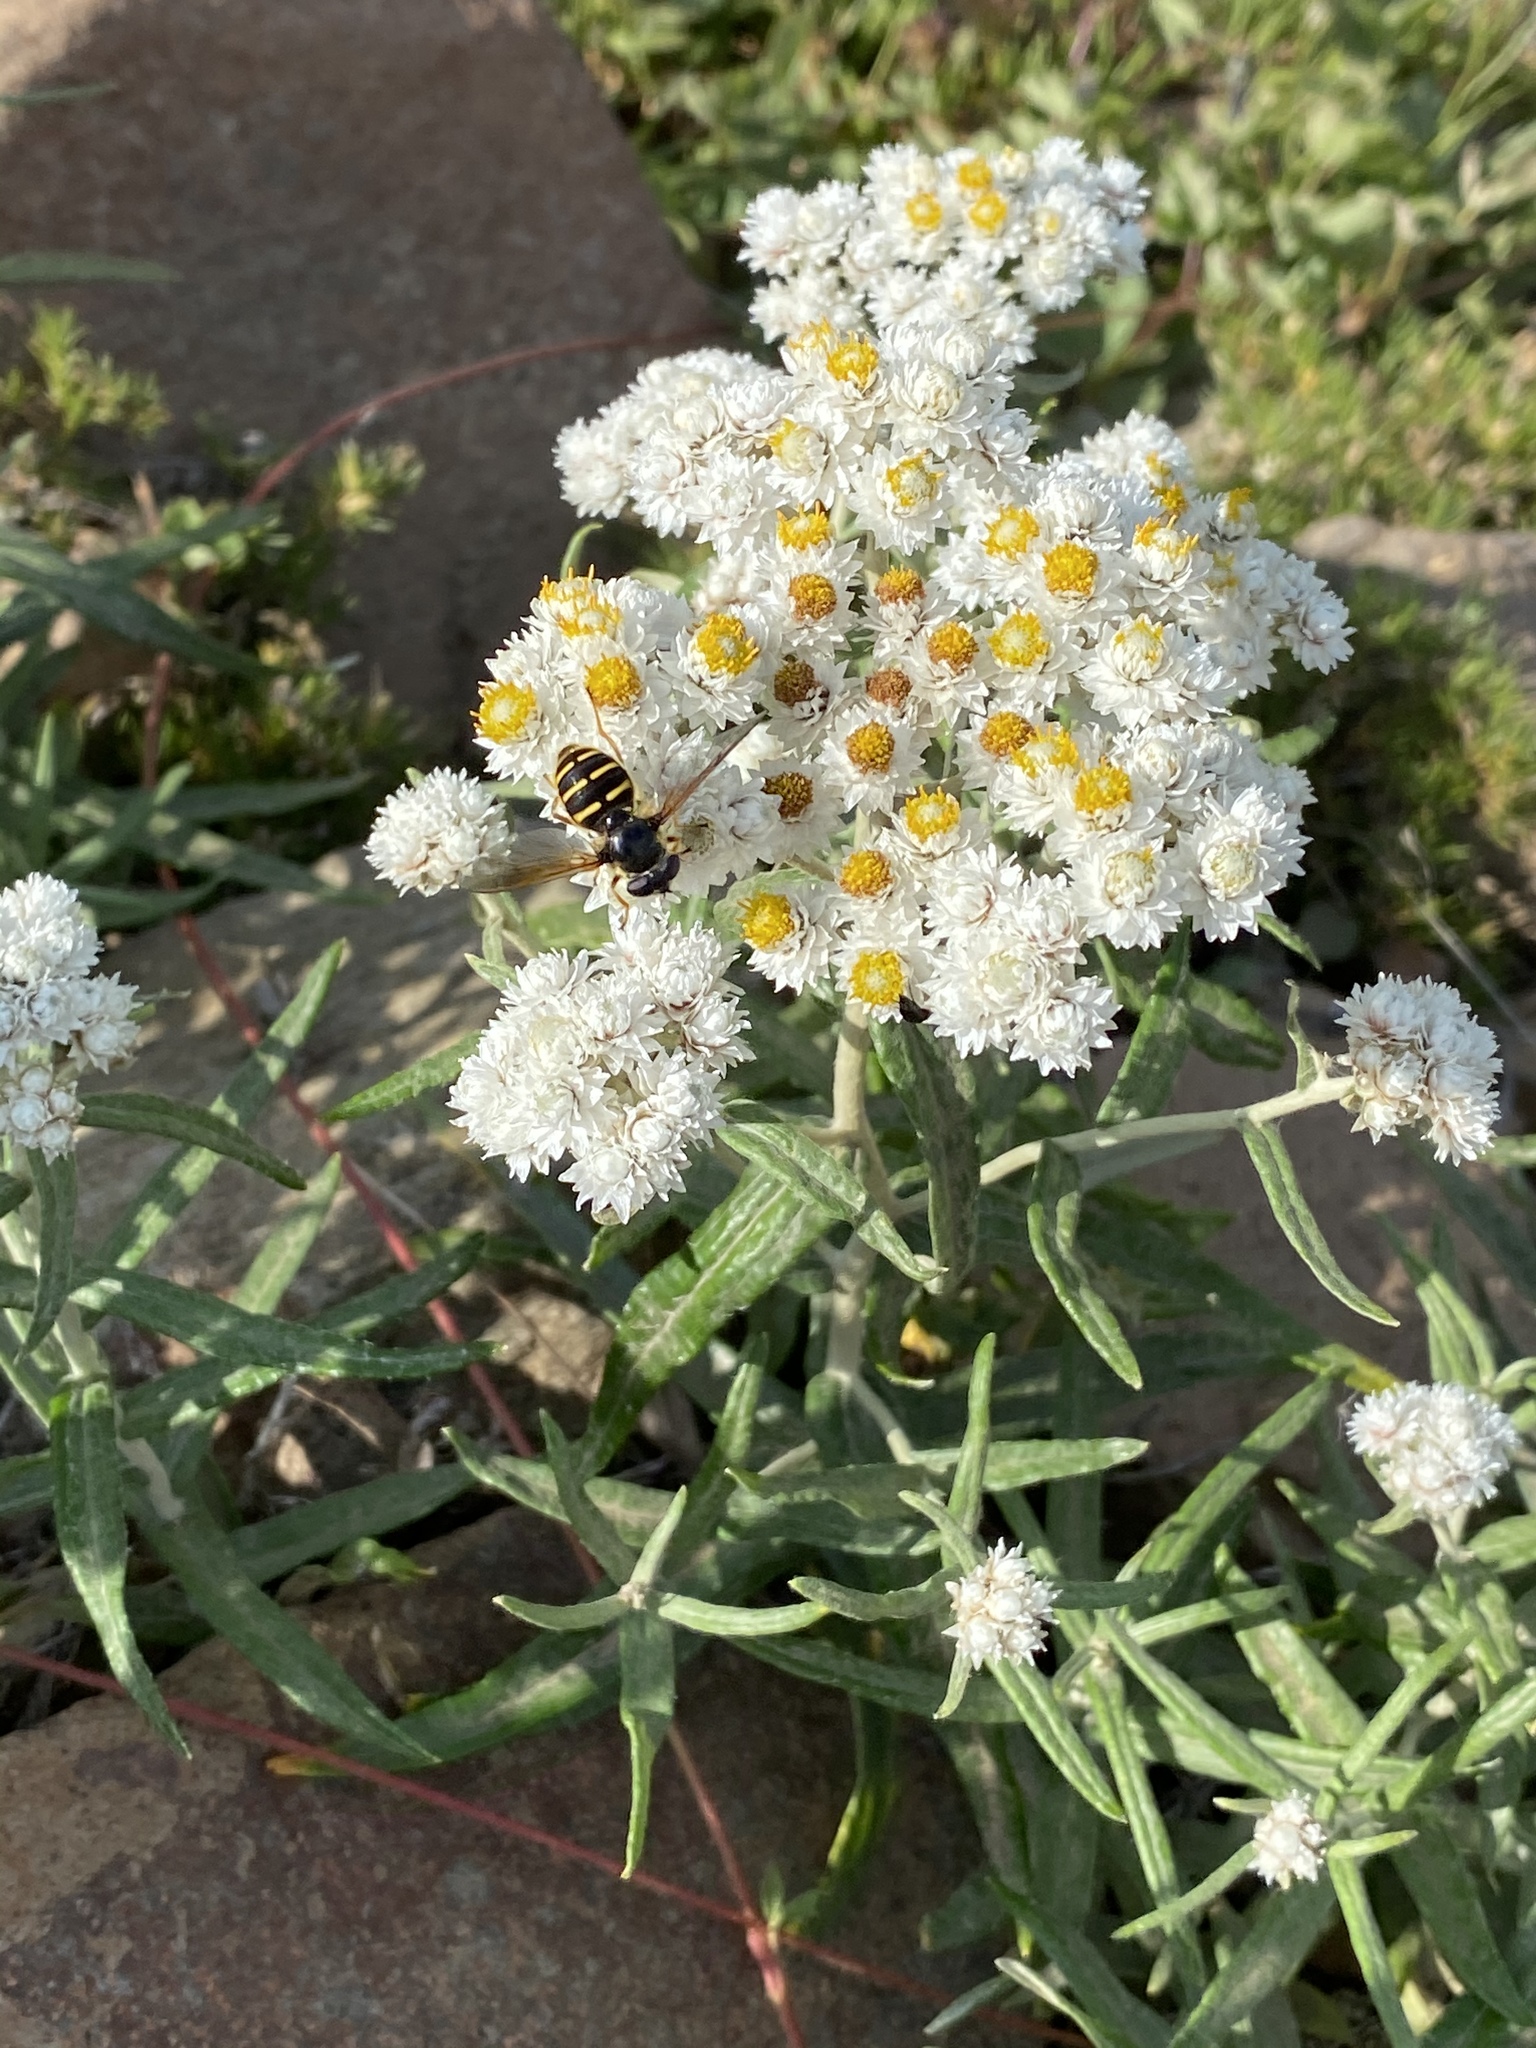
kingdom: Plantae
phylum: Tracheophyta
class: Magnoliopsida
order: Asterales
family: Asteraceae
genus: Anaphalis
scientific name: Anaphalis margaritacea
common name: Pearly everlasting
